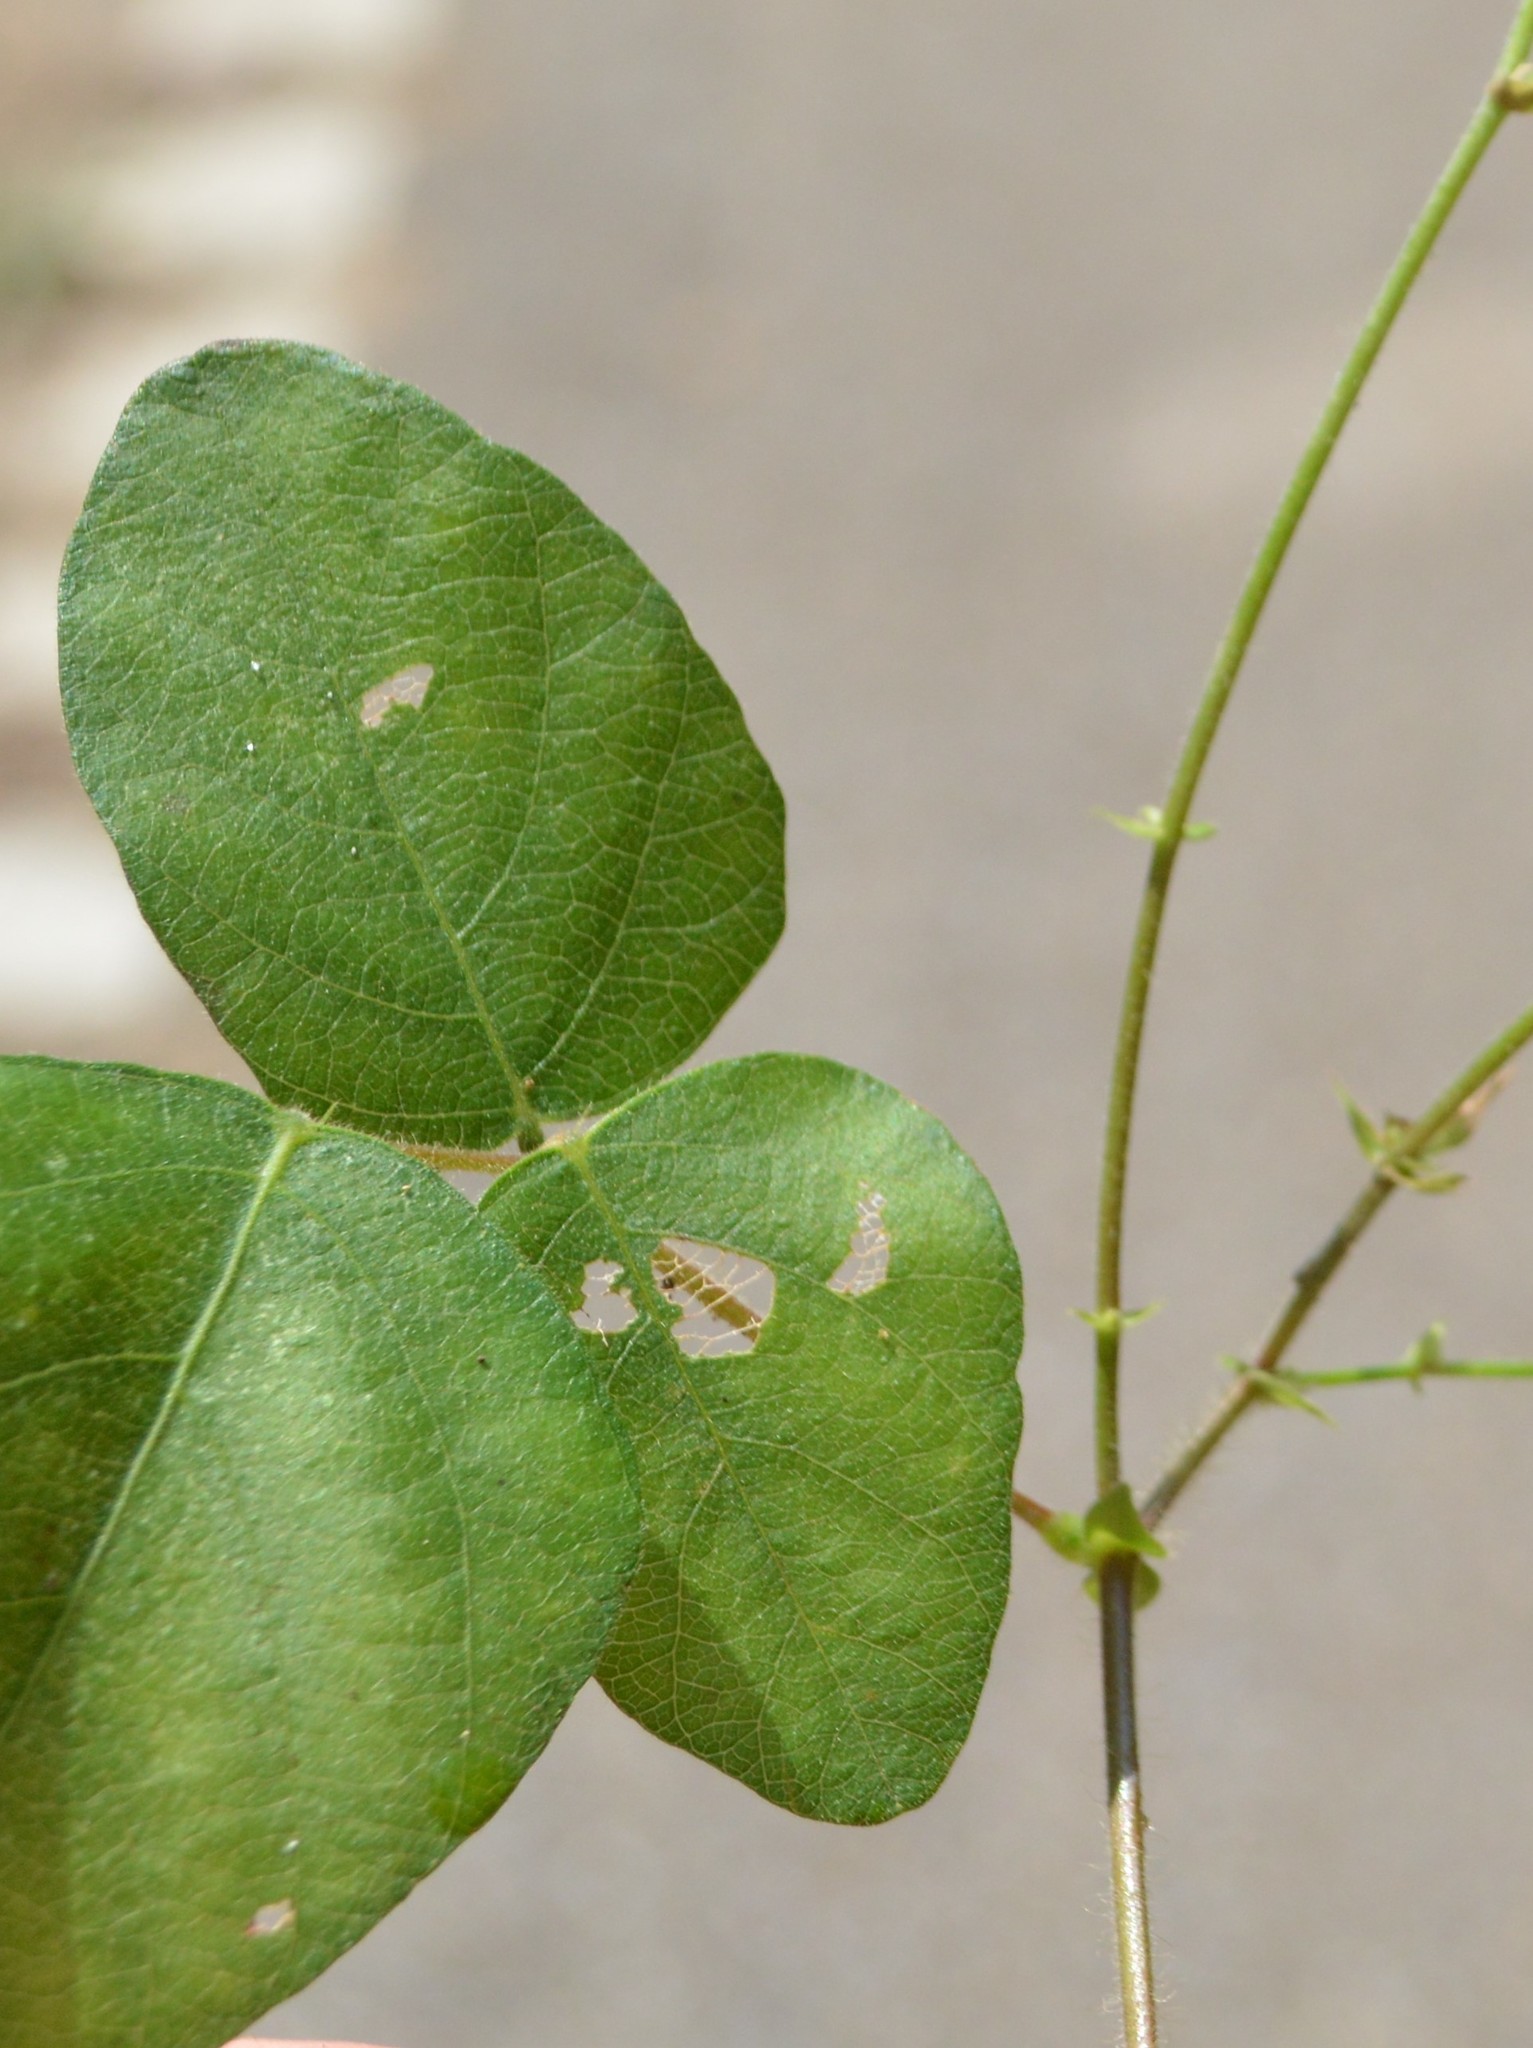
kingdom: Plantae
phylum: Tracheophyta
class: Magnoliopsida
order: Fabales
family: Fabaceae
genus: Desmodium
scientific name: Desmodium ochroleucum
